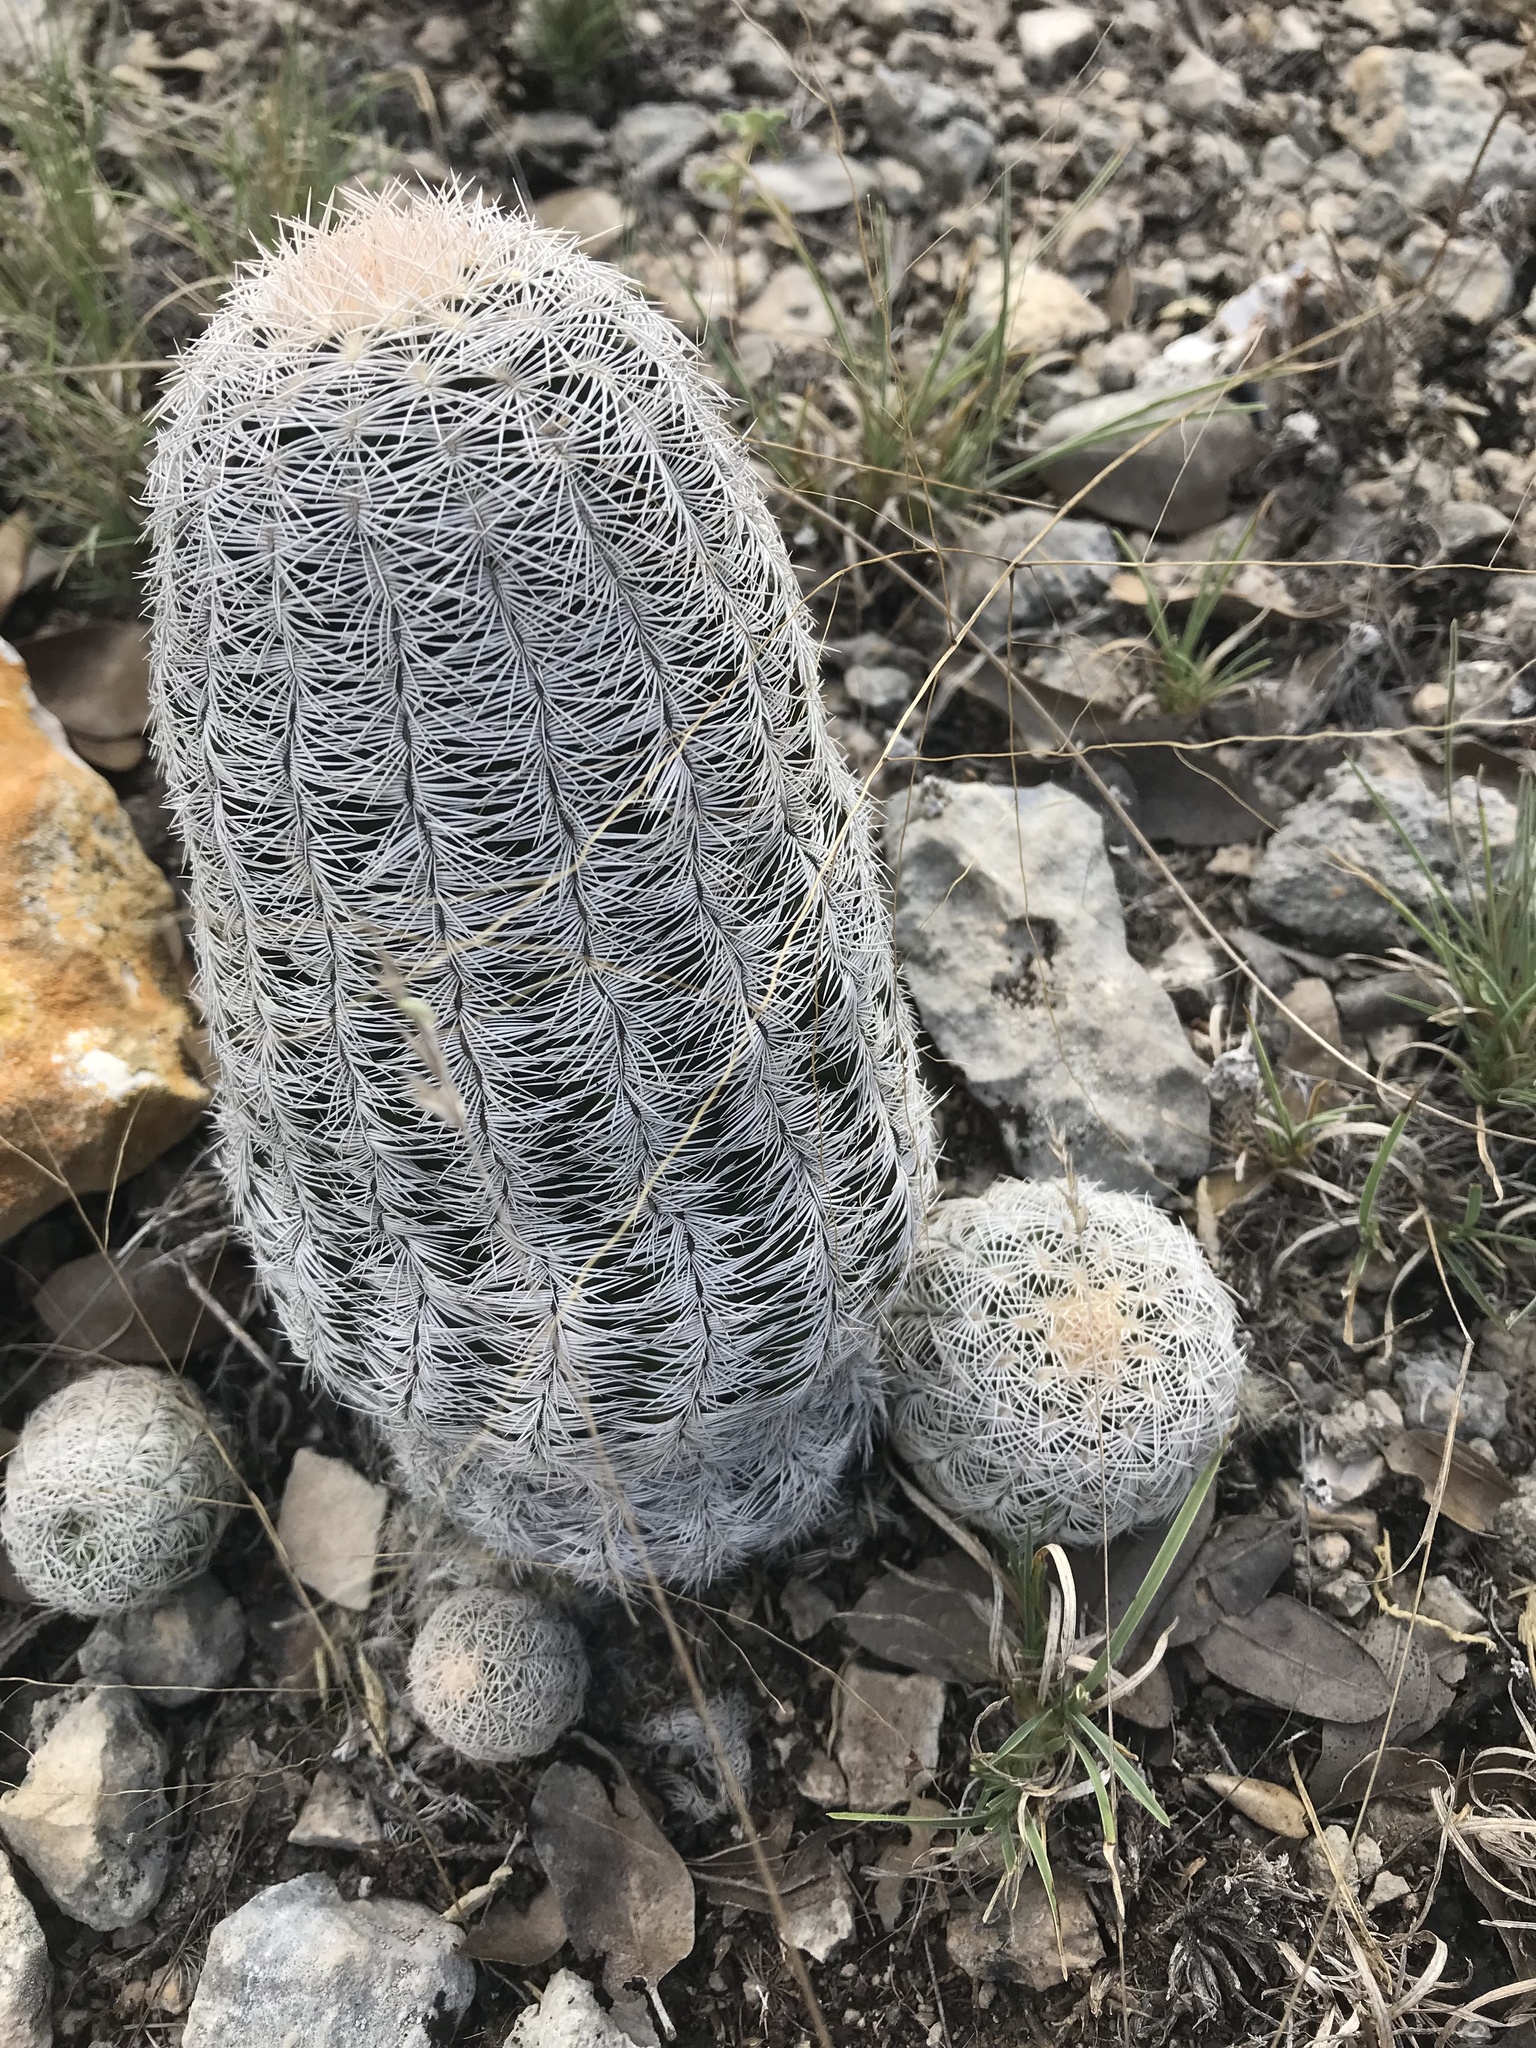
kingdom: Plantae
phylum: Tracheophyta
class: Magnoliopsida
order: Caryophyllales
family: Cactaceae
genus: Echinocereus
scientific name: Echinocereus reichenbachii
